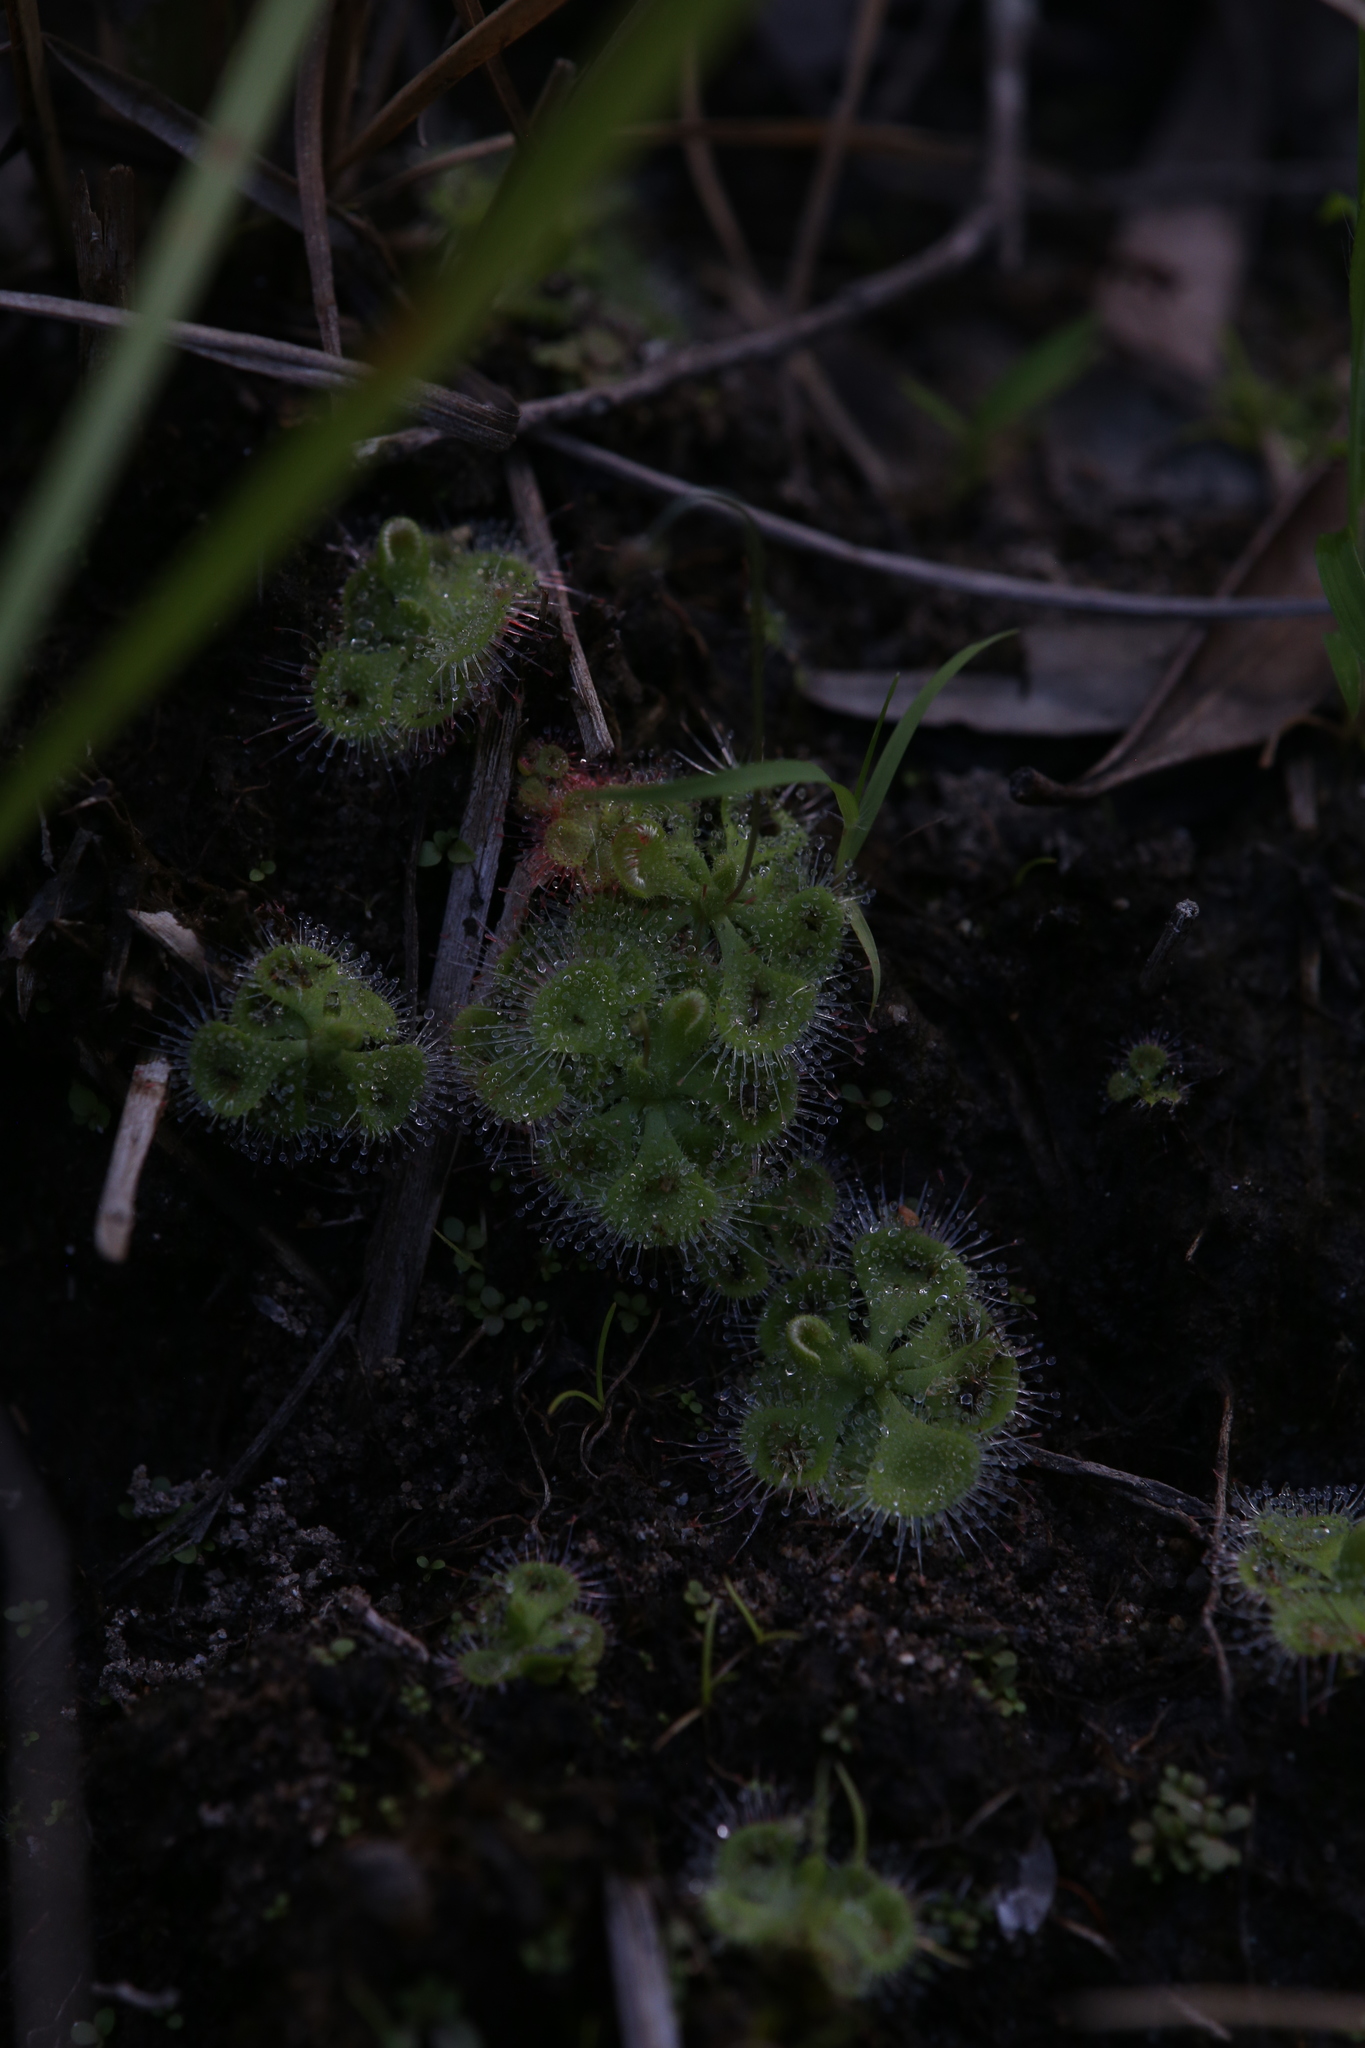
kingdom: Plantae
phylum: Tracheophyta
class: Magnoliopsida
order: Caryophyllales
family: Droseraceae
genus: Drosera
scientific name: Drosera spatulata
